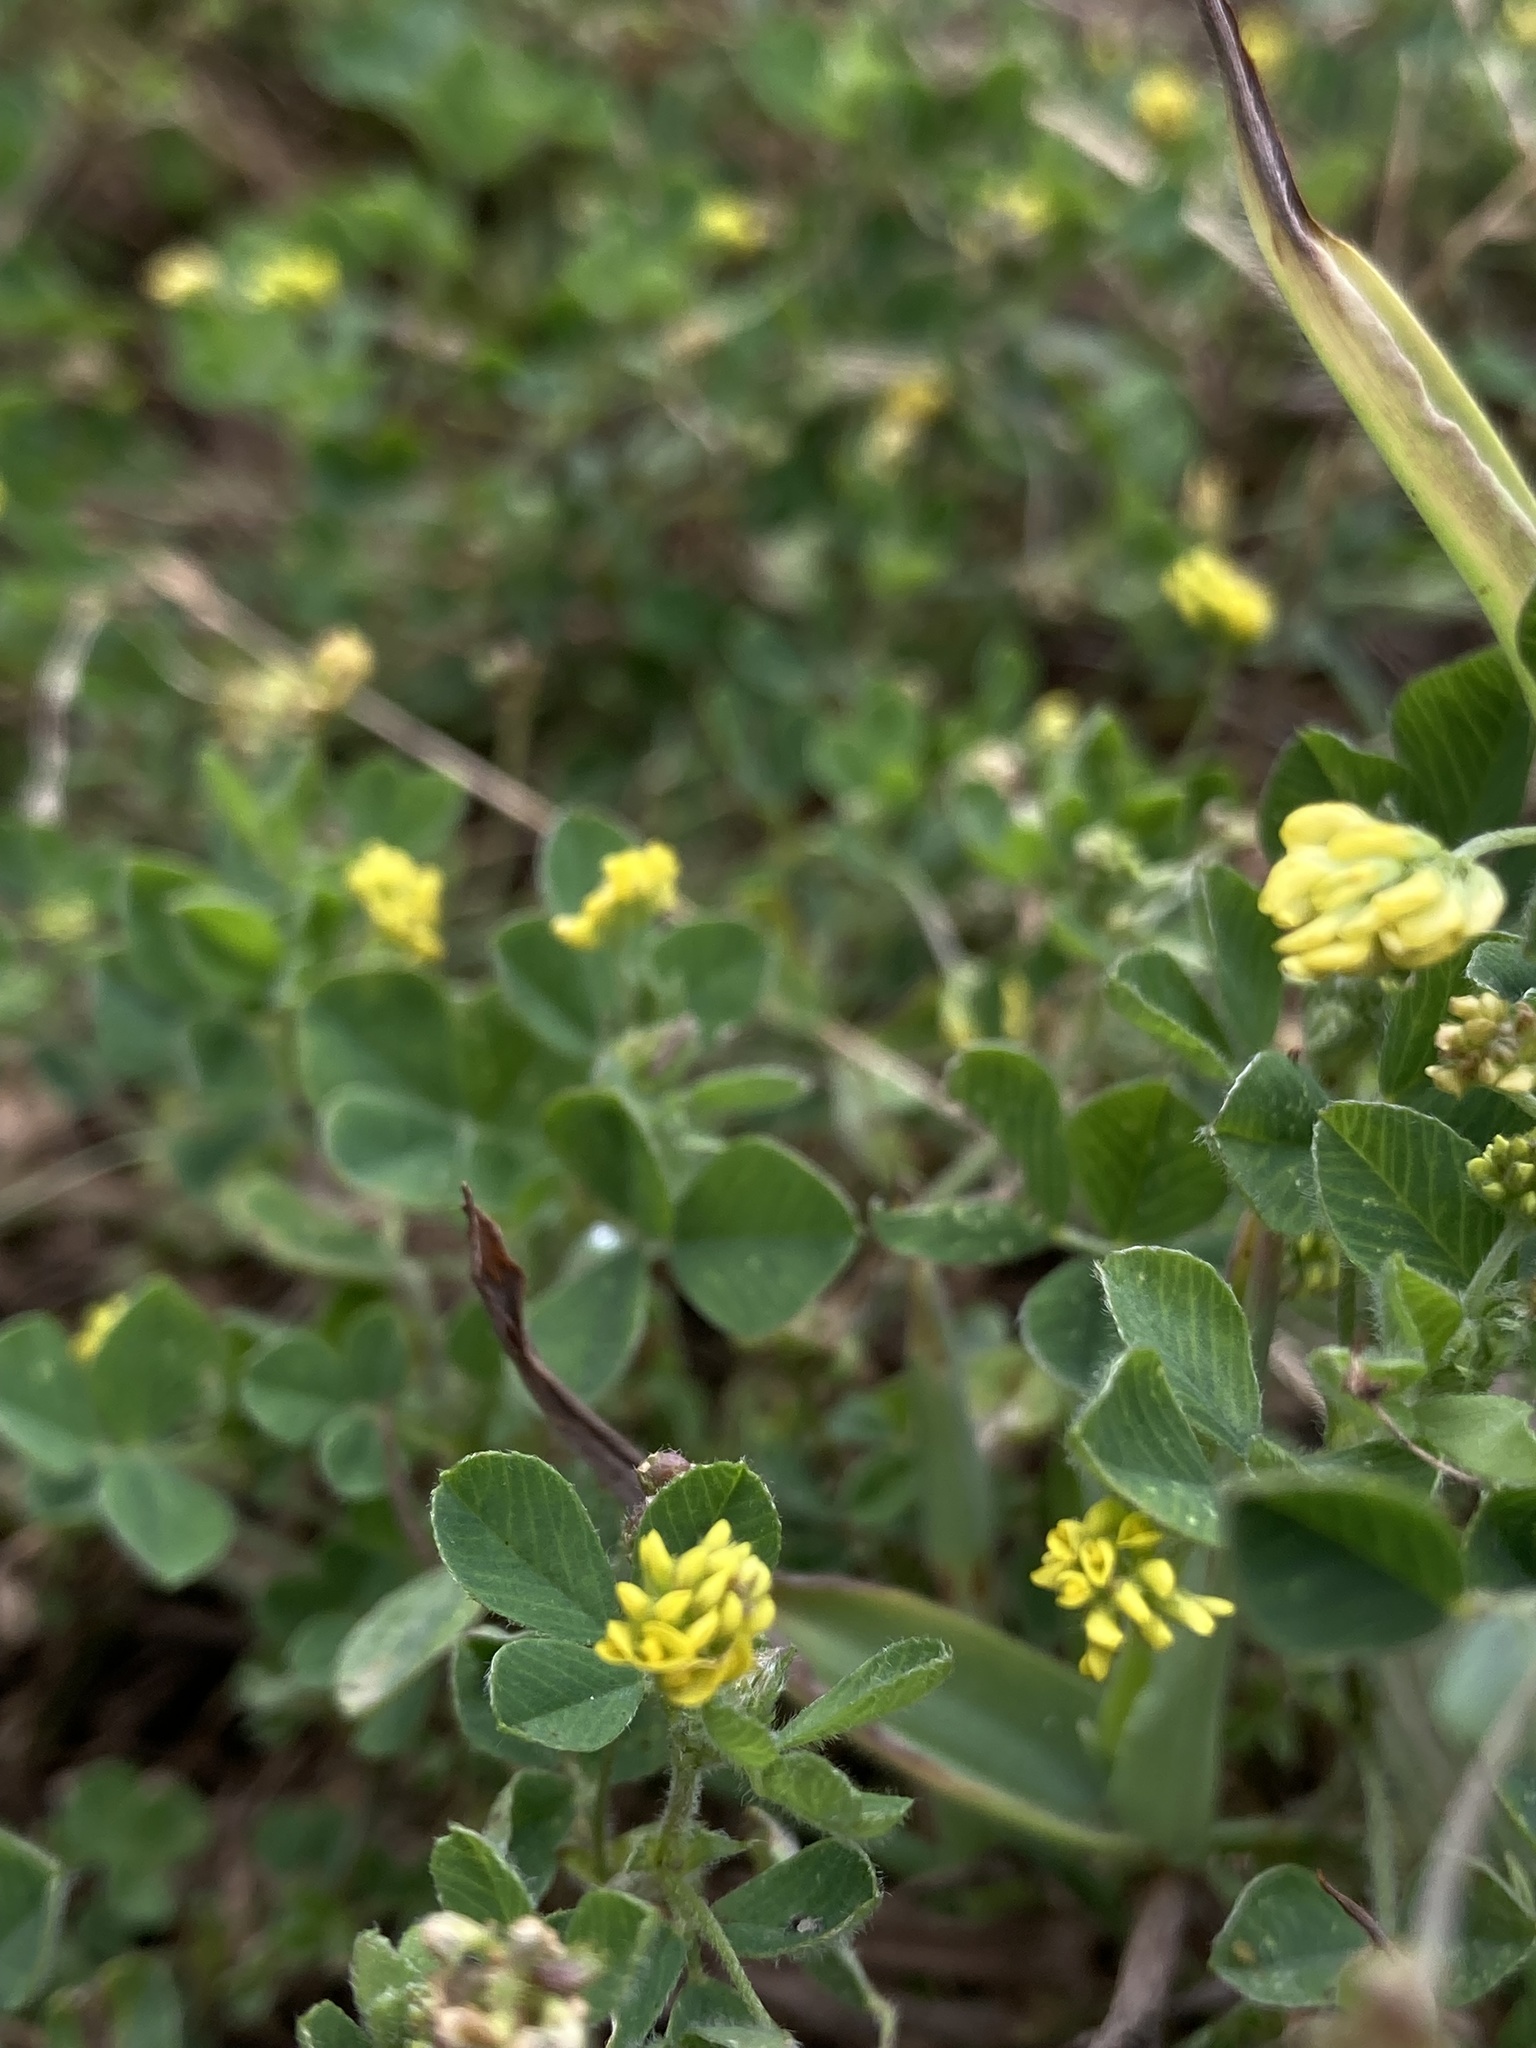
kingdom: Plantae
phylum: Tracheophyta
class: Magnoliopsida
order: Fabales
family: Fabaceae
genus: Medicago
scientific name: Medicago lupulina
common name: Black medick
